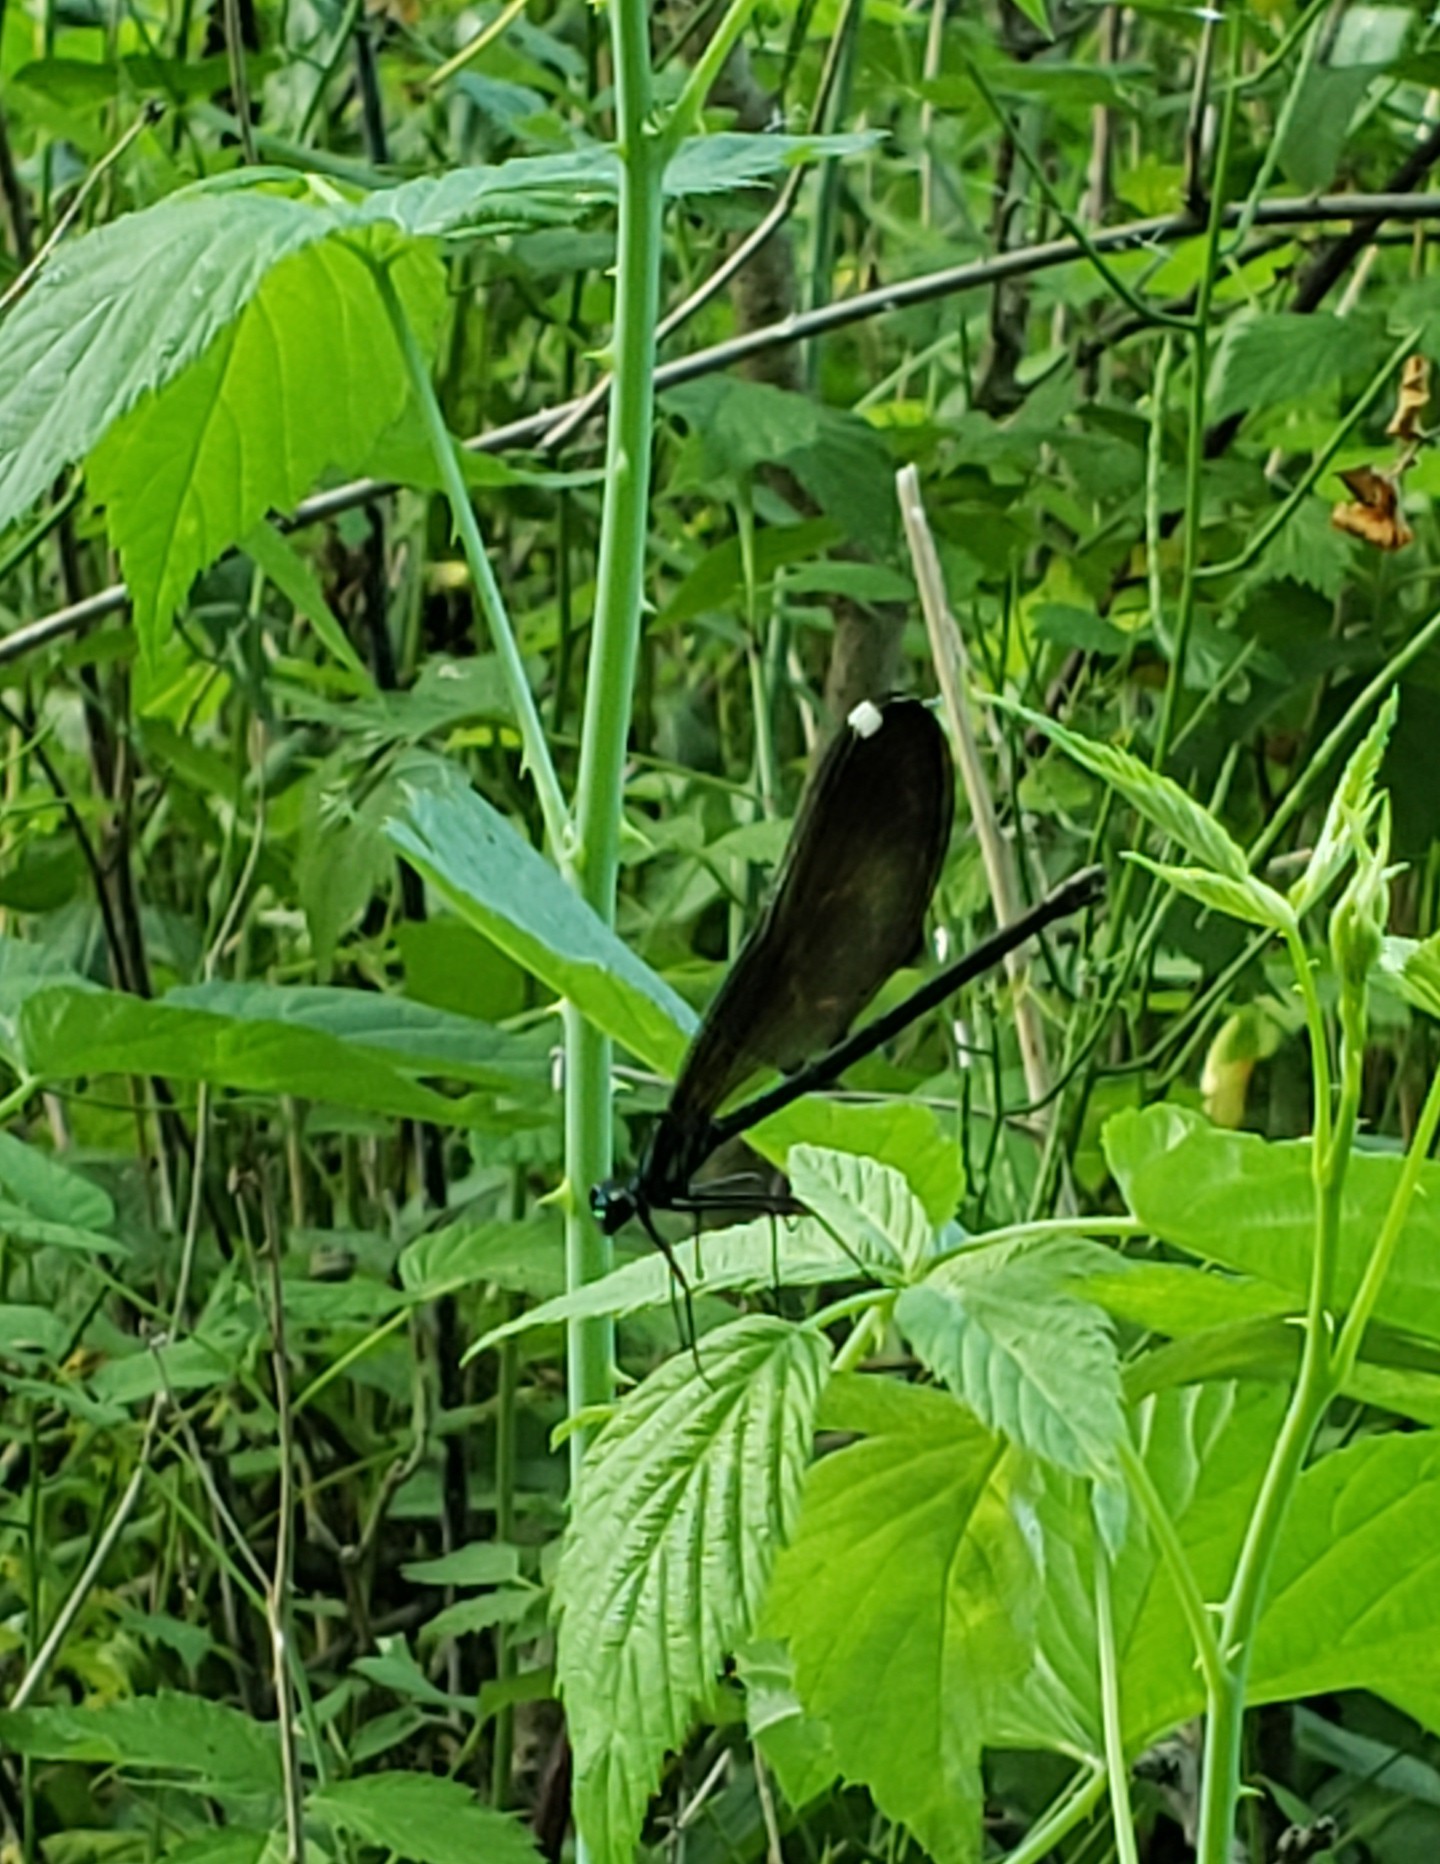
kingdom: Animalia
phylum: Arthropoda
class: Insecta
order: Odonata
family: Calopterygidae
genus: Calopteryx
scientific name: Calopteryx maculata
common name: Ebony jewelwing
